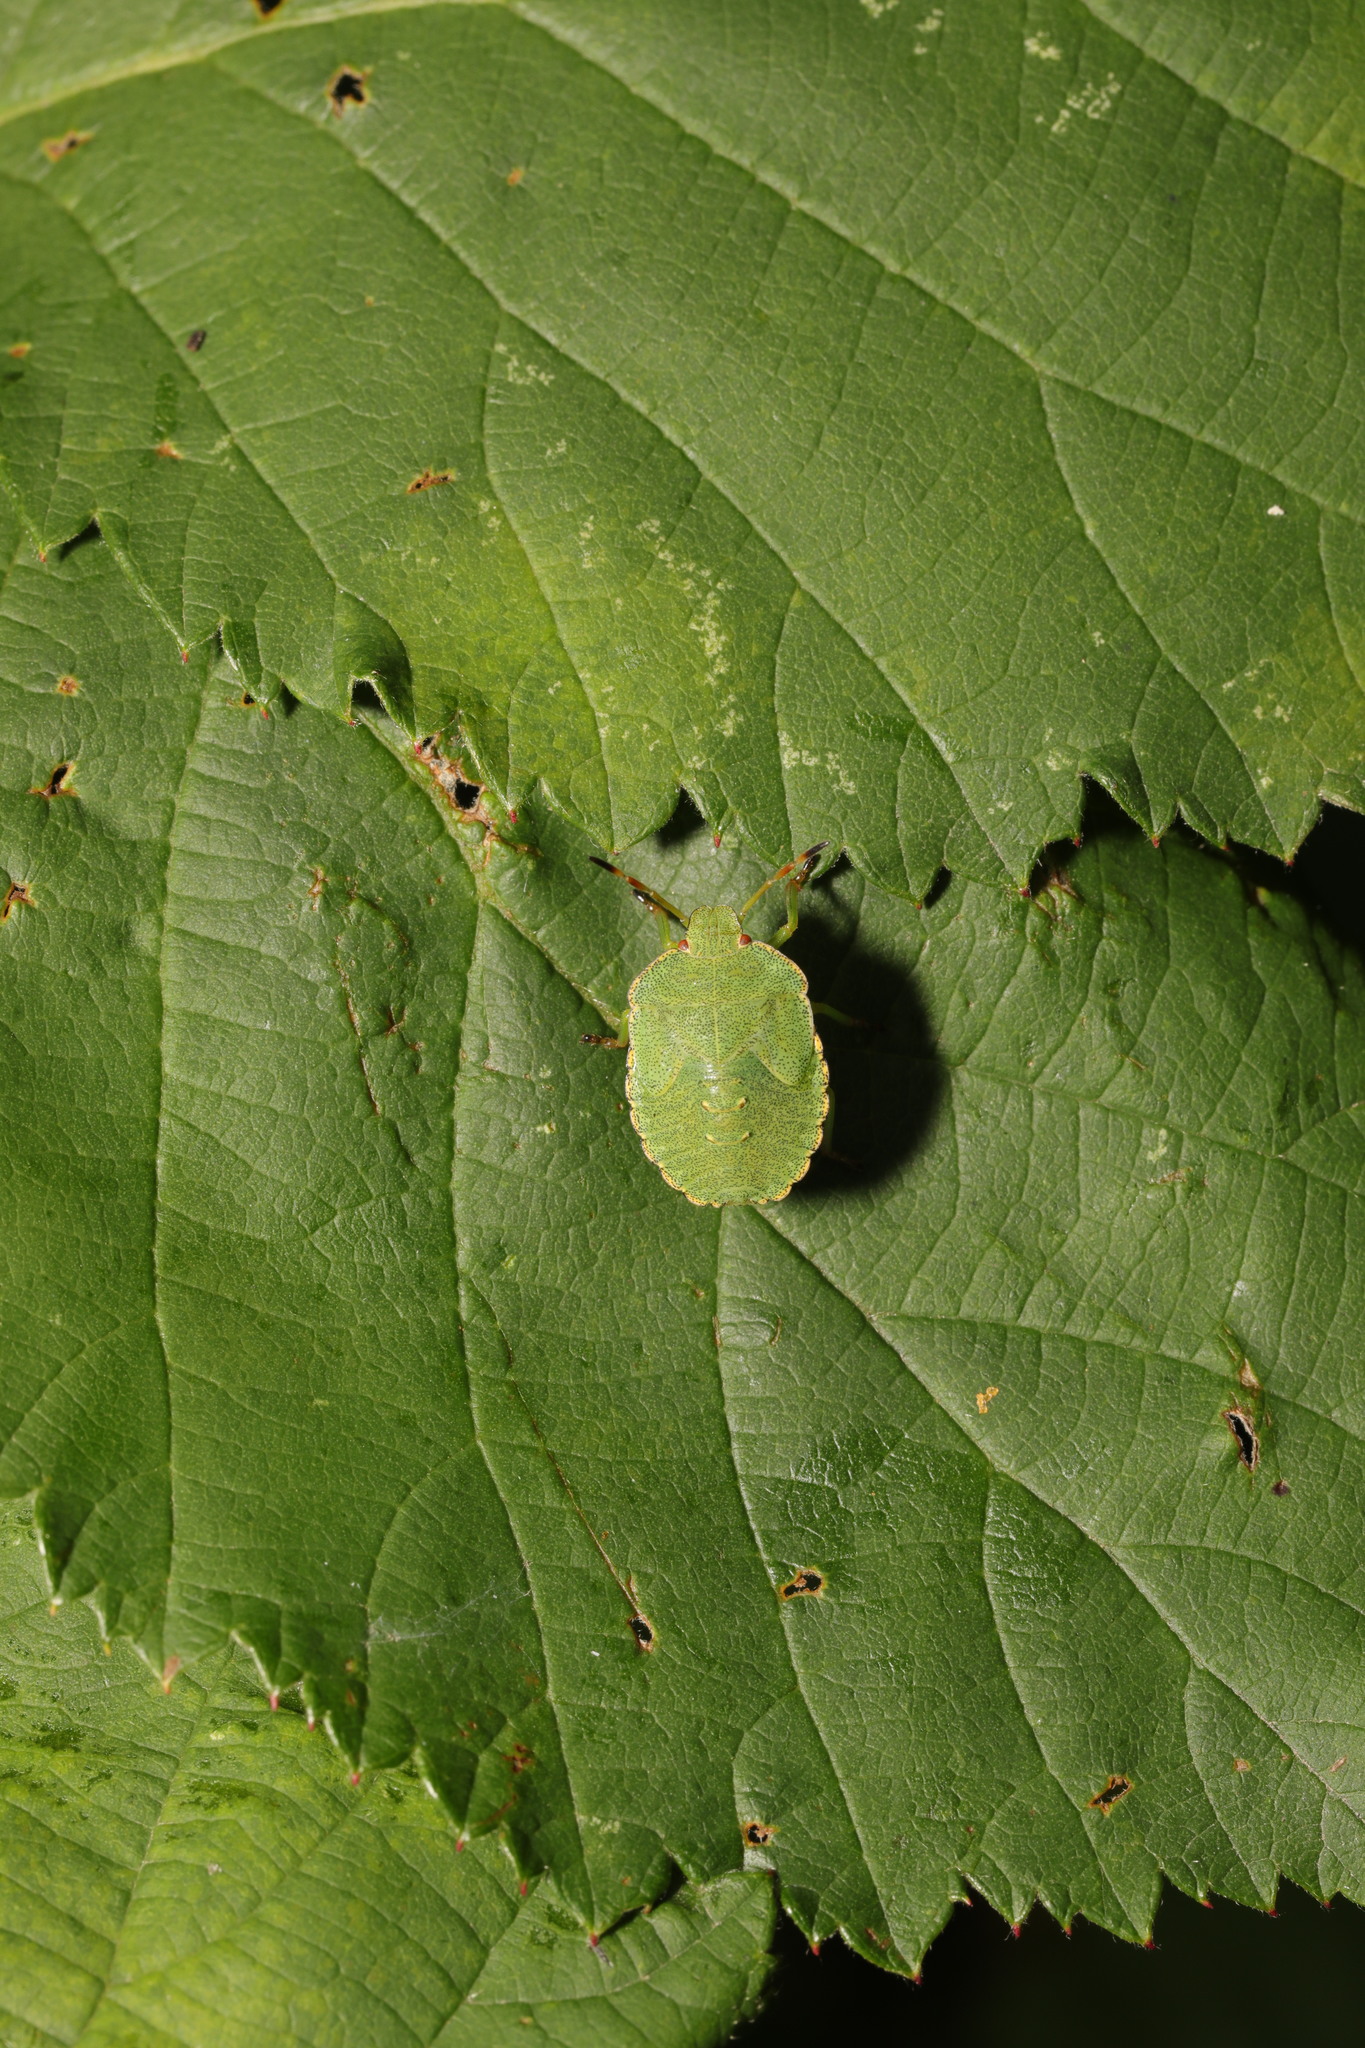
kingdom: Animalia
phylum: Arthropoda
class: Insecta
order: Hemiptera
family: Pentatomidae
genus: Palomena
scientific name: Palomena prasina
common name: Green shieldbug
